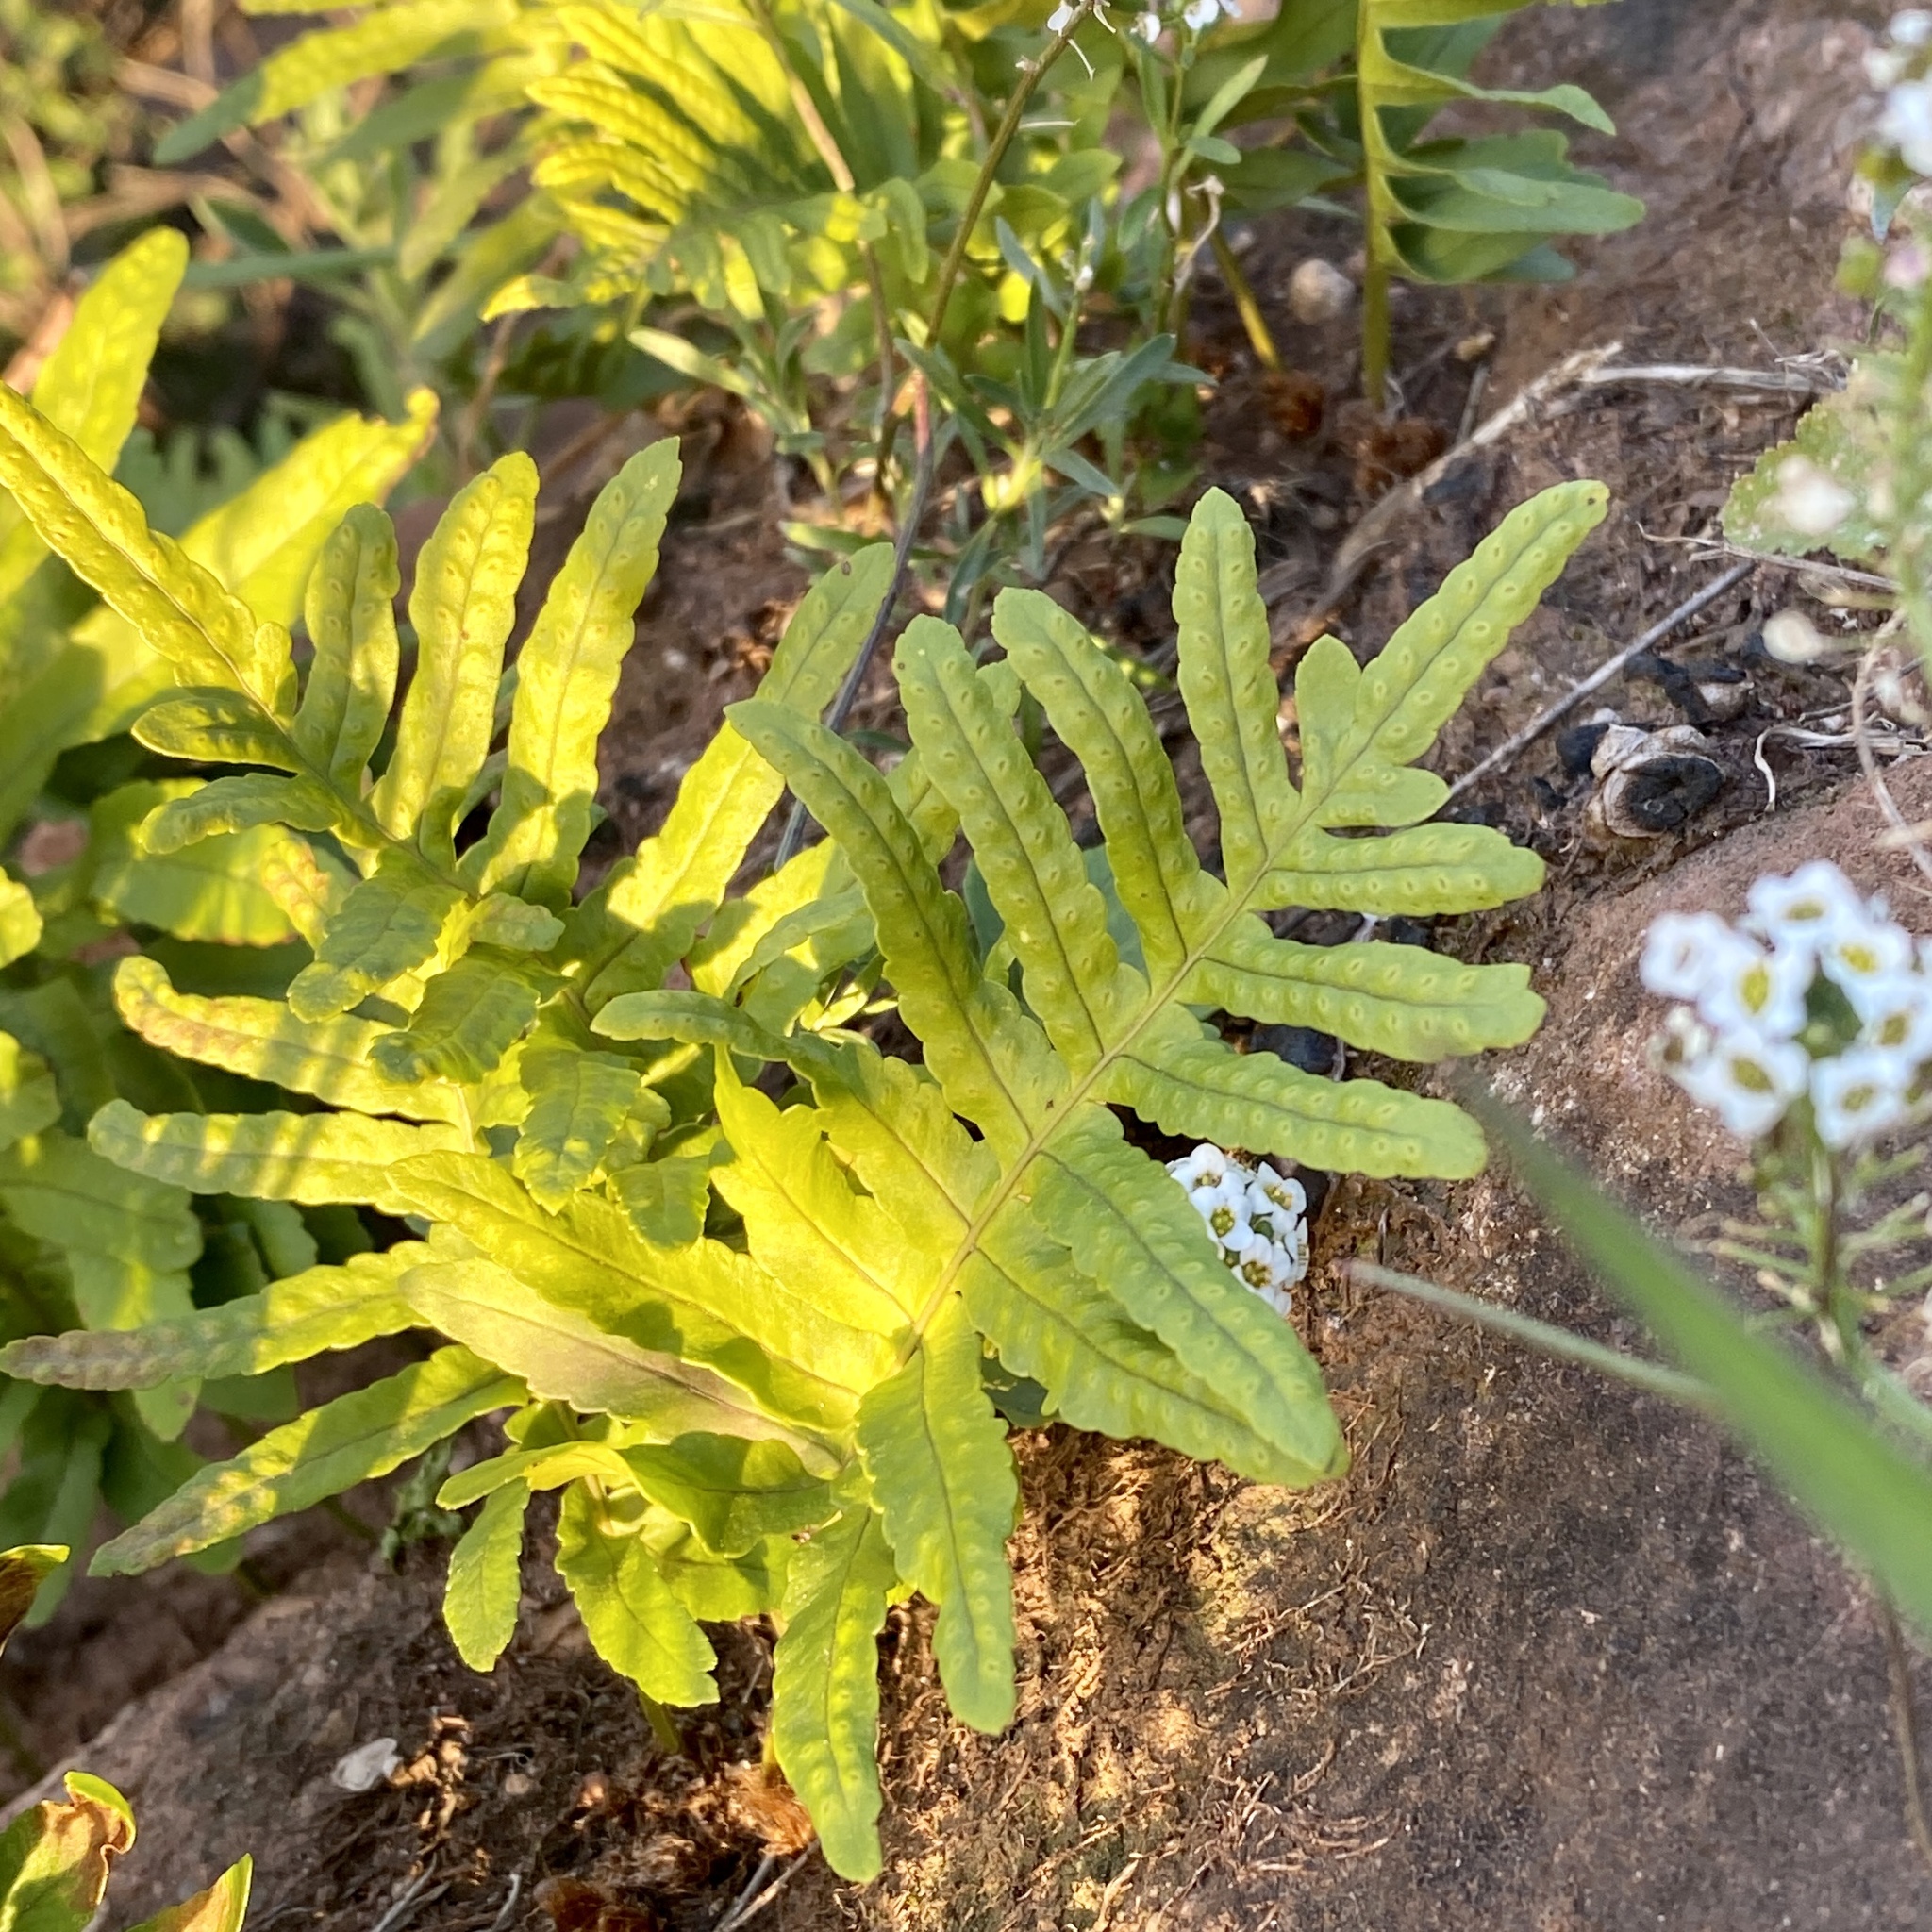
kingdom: Plantae
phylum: Tracheophyta
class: Polypodiopsida
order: Polypodiales
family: Polypodiaceae
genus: Polypodium
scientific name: Polypodium cambricum
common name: Southern polypody
